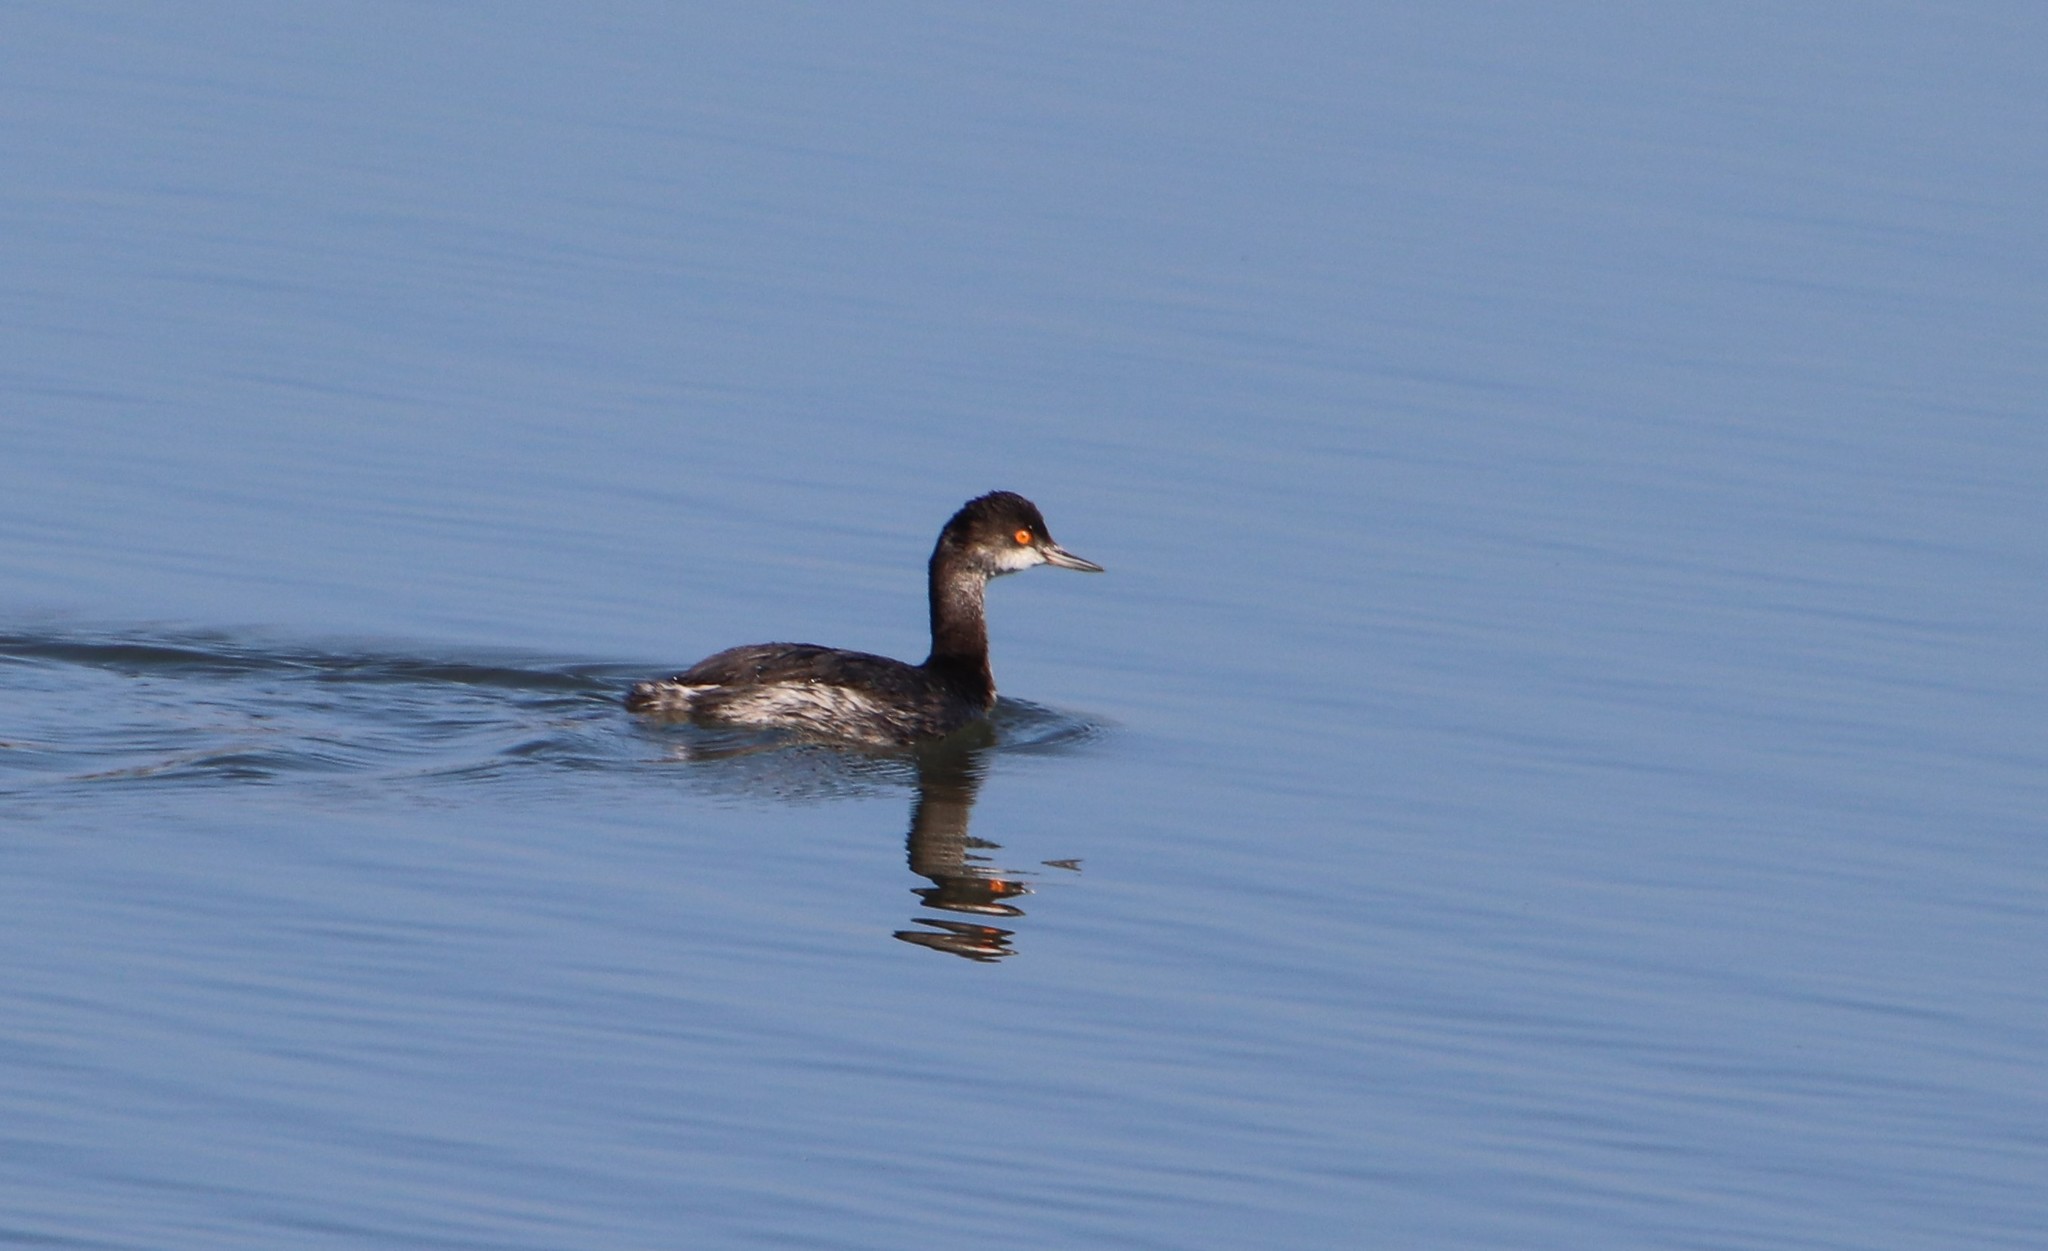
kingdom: Animalia
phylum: Chordata
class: Aves
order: Podicipediformes
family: Podicipedidae
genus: Podiceps
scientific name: Podiceps nigricollis
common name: Black-necked grebe
